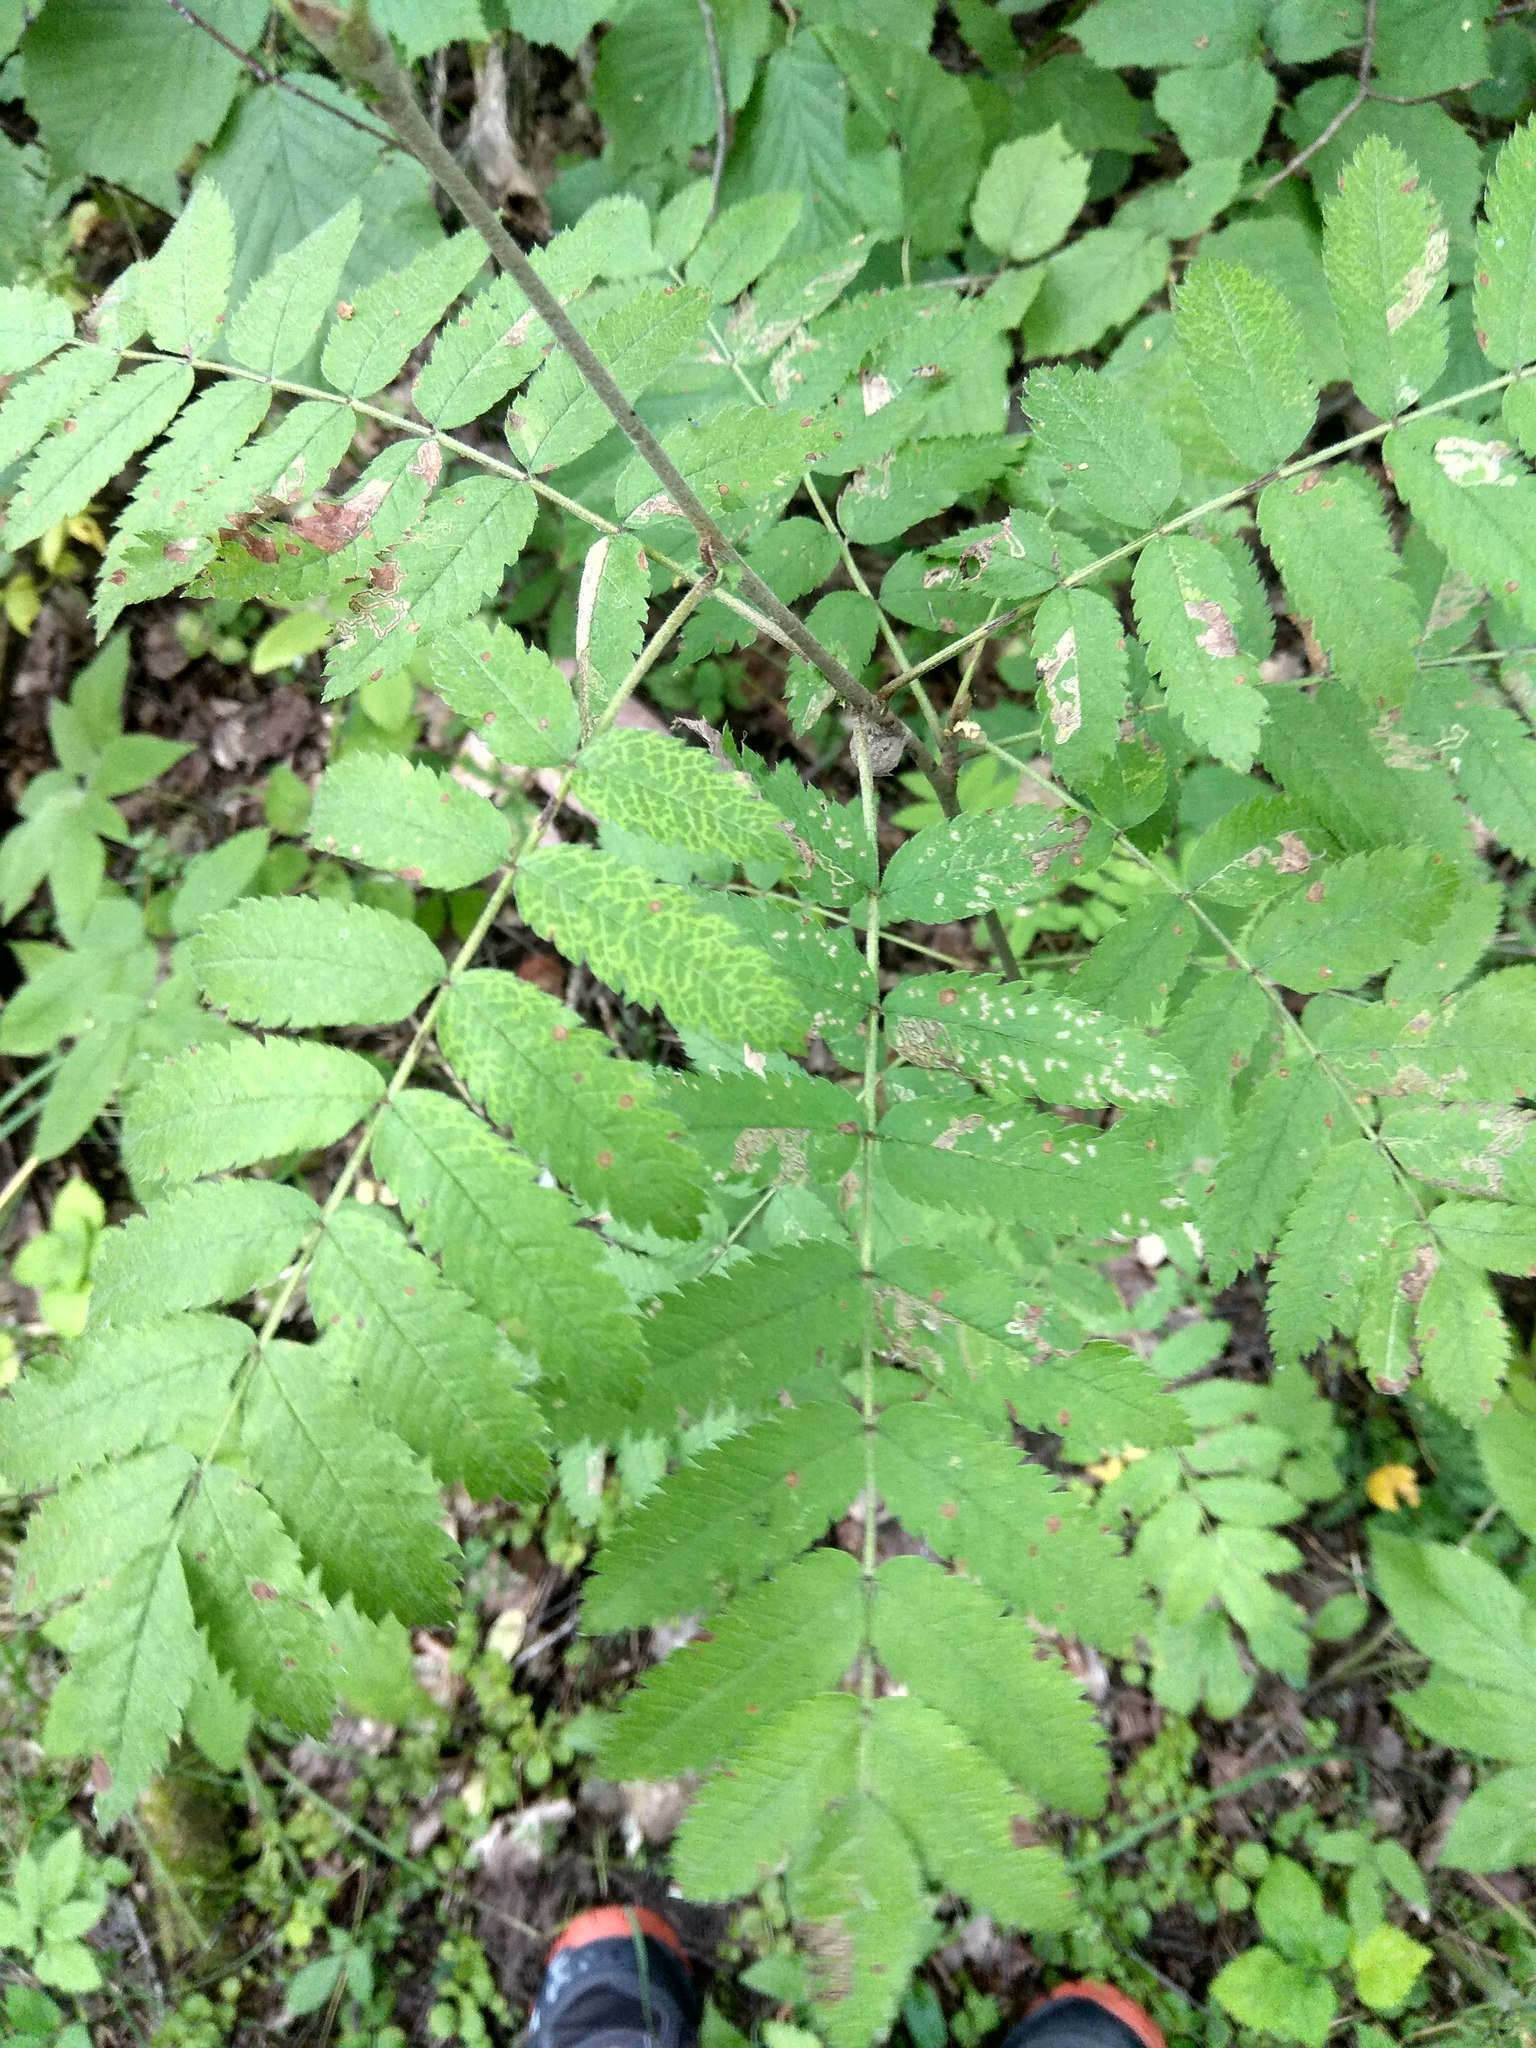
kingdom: Plantae
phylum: Tracheophyta
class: Magnoliopsida
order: Rosales
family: Rosaceae
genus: Sorbus
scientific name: Sorbus aucuparia
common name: Rowan
